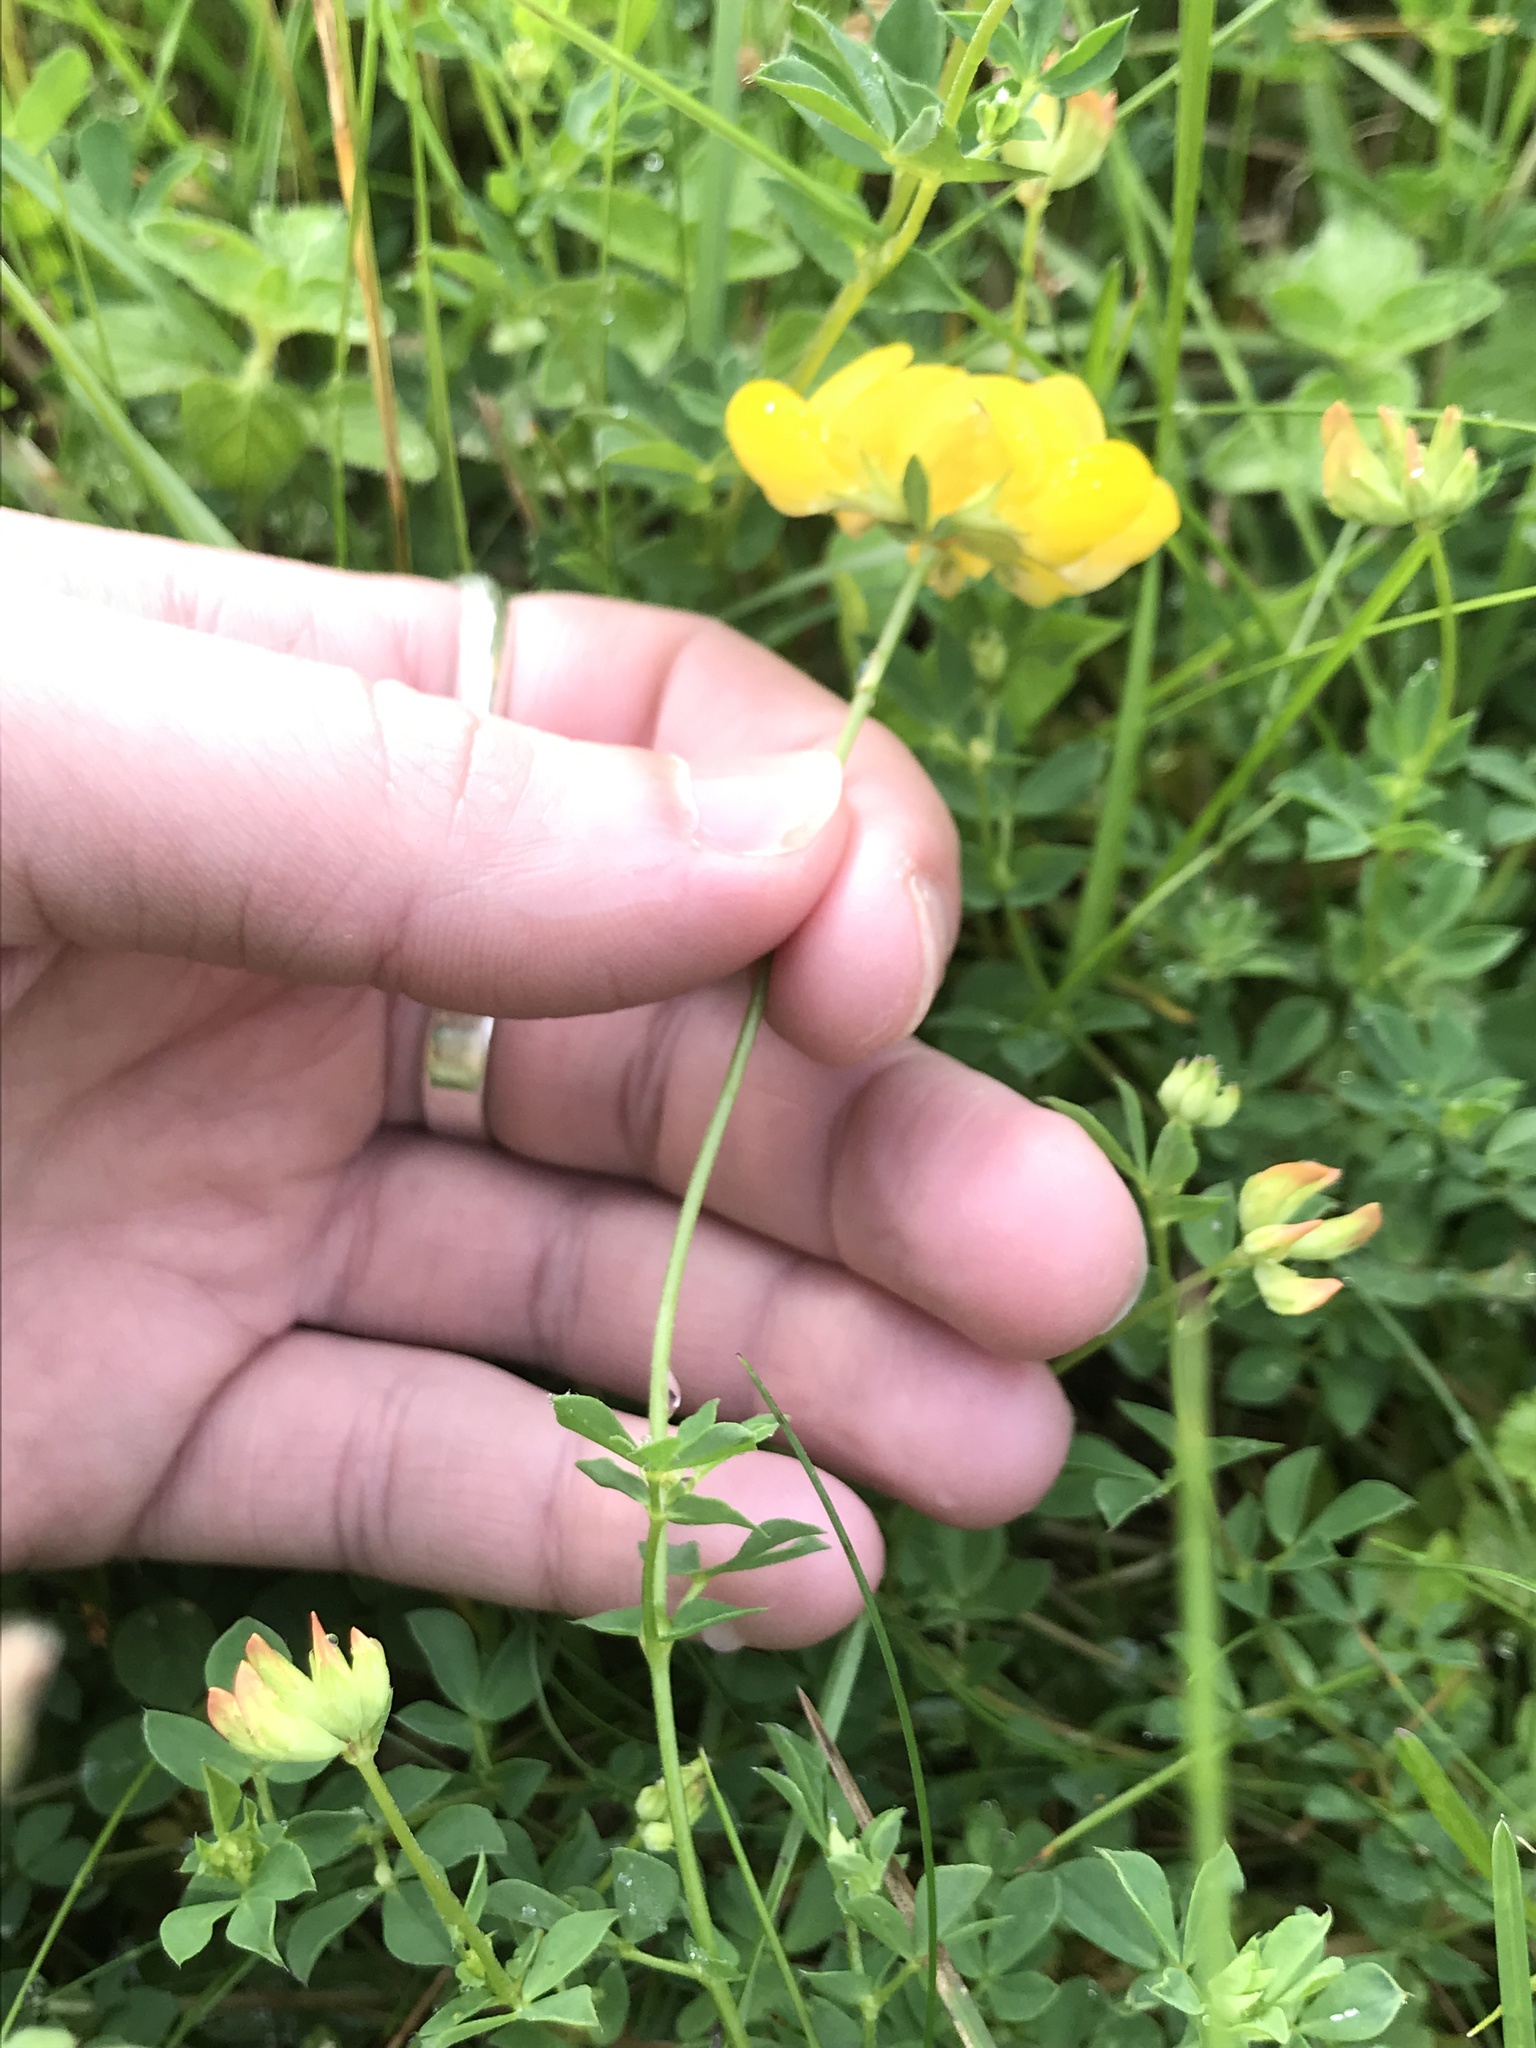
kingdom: Plantae
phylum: Tracheophyta
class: Magnoliopsida
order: Fabales
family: Fabaceae
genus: Lotus
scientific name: Lotus corniculatus
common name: Common bird's-foot-trefoil
